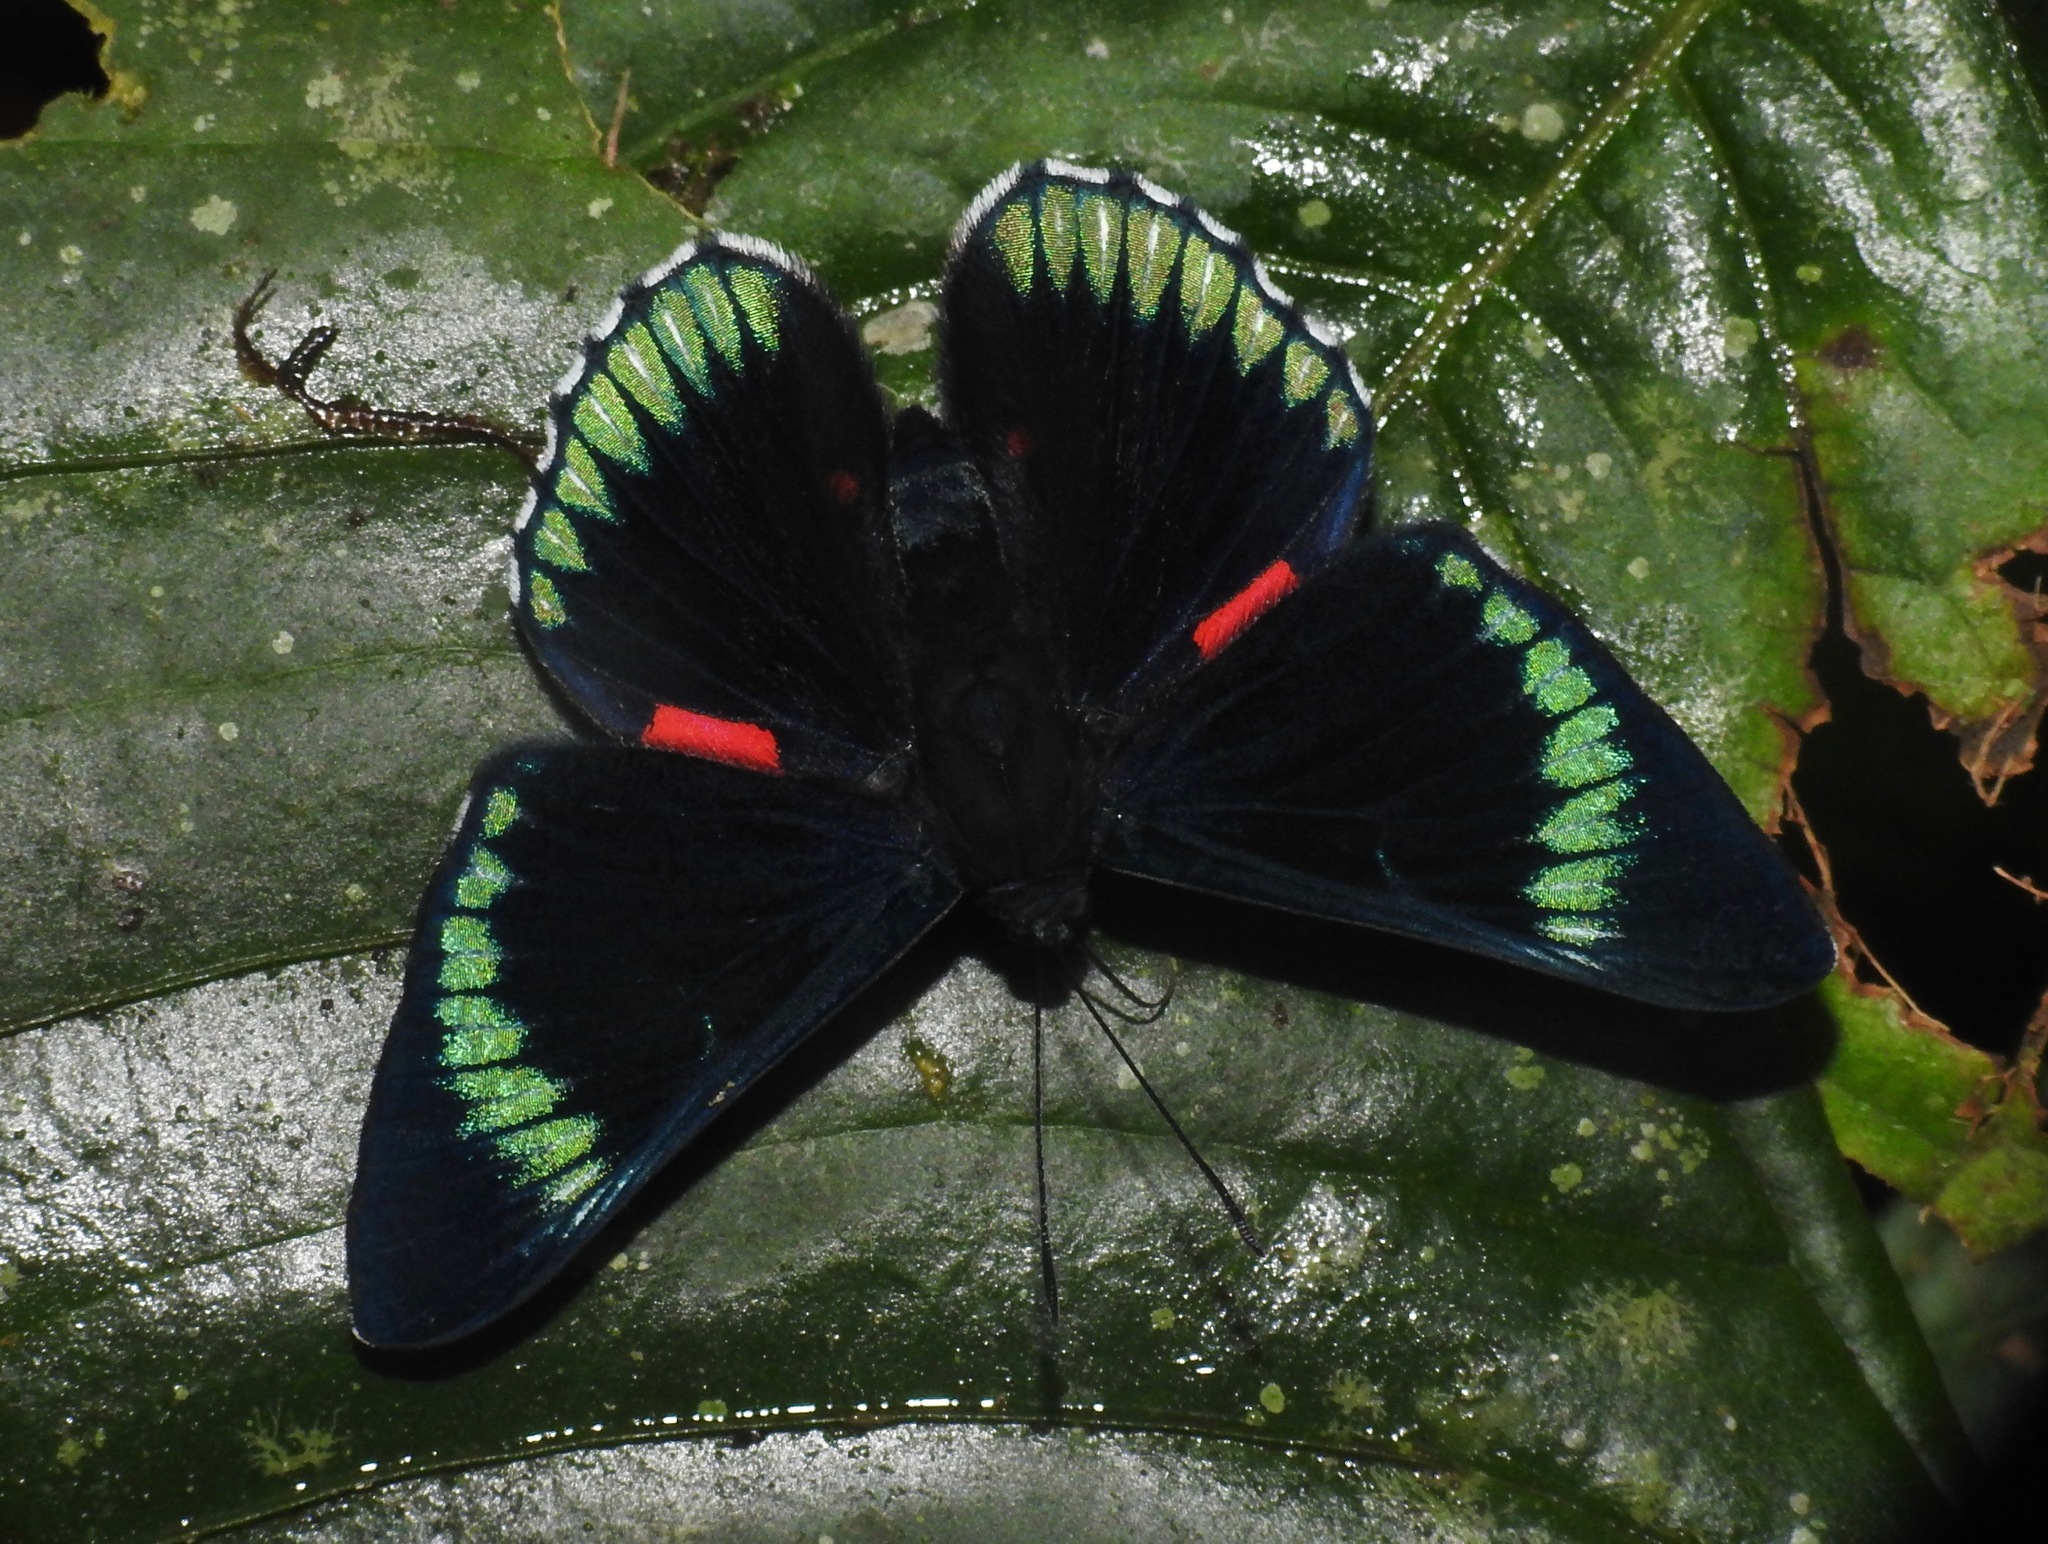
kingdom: Animalia
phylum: Arthropoda
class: Insecta
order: Lepidoptera
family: Lycaenidae
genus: Necyria
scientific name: Necyria duellona
